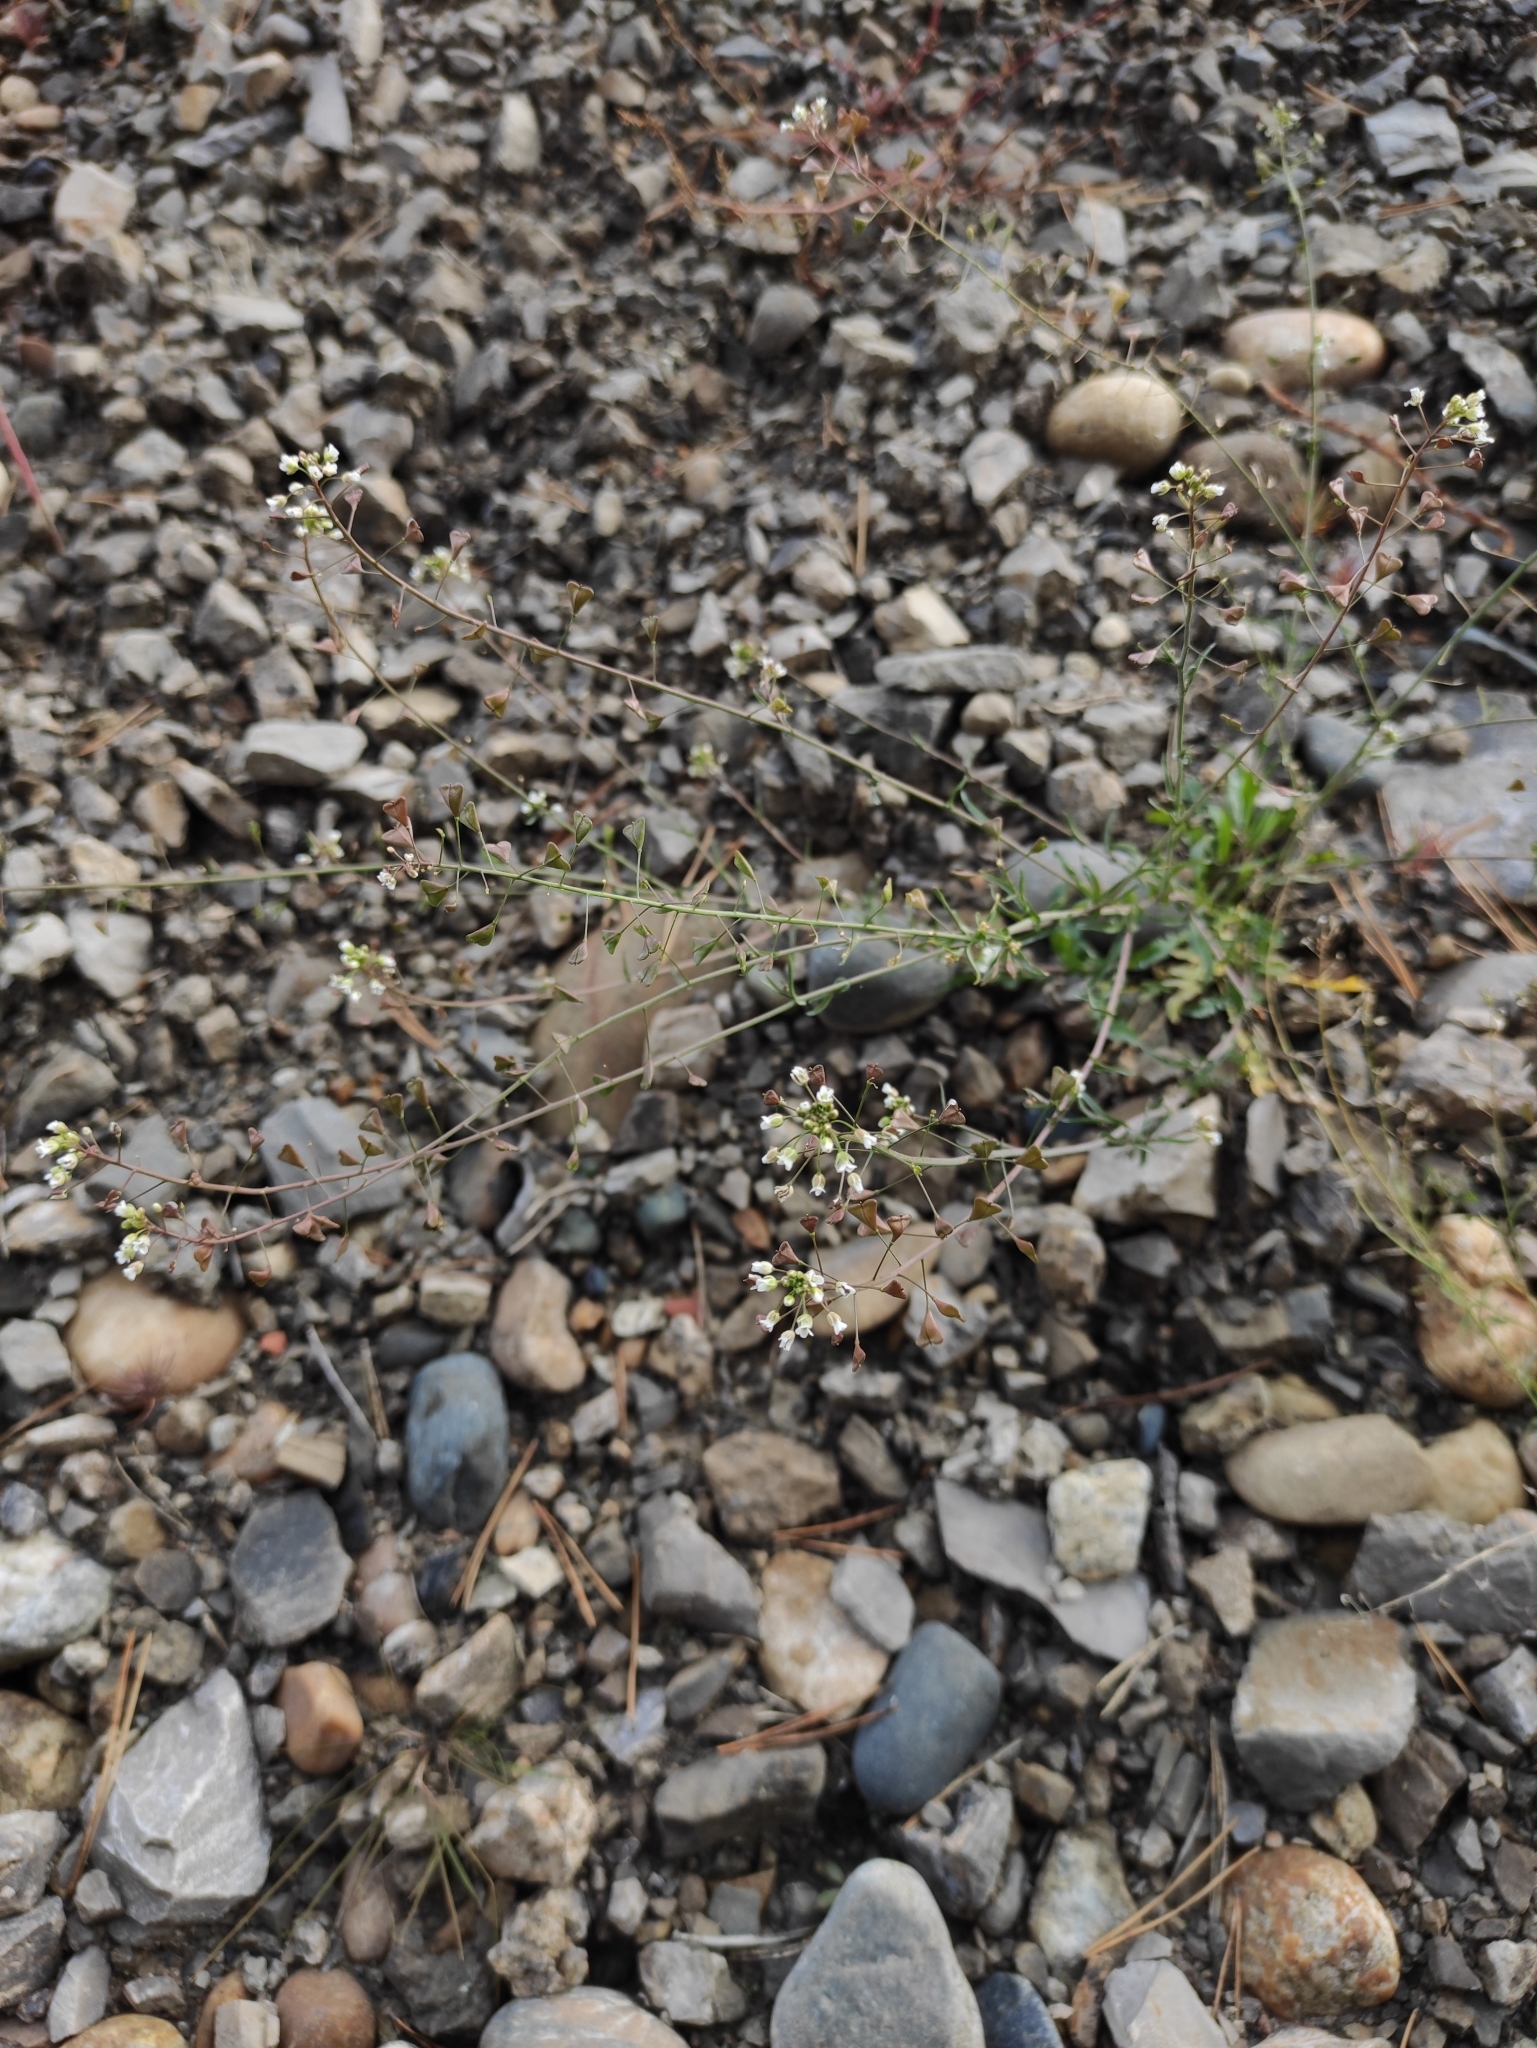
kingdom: Plantae
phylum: Tracheophyta
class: Magnoliopsida
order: Brassicales
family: Brassicaceae
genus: Capsella
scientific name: Capsella bursa-pastoris
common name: Shepherd's purse
